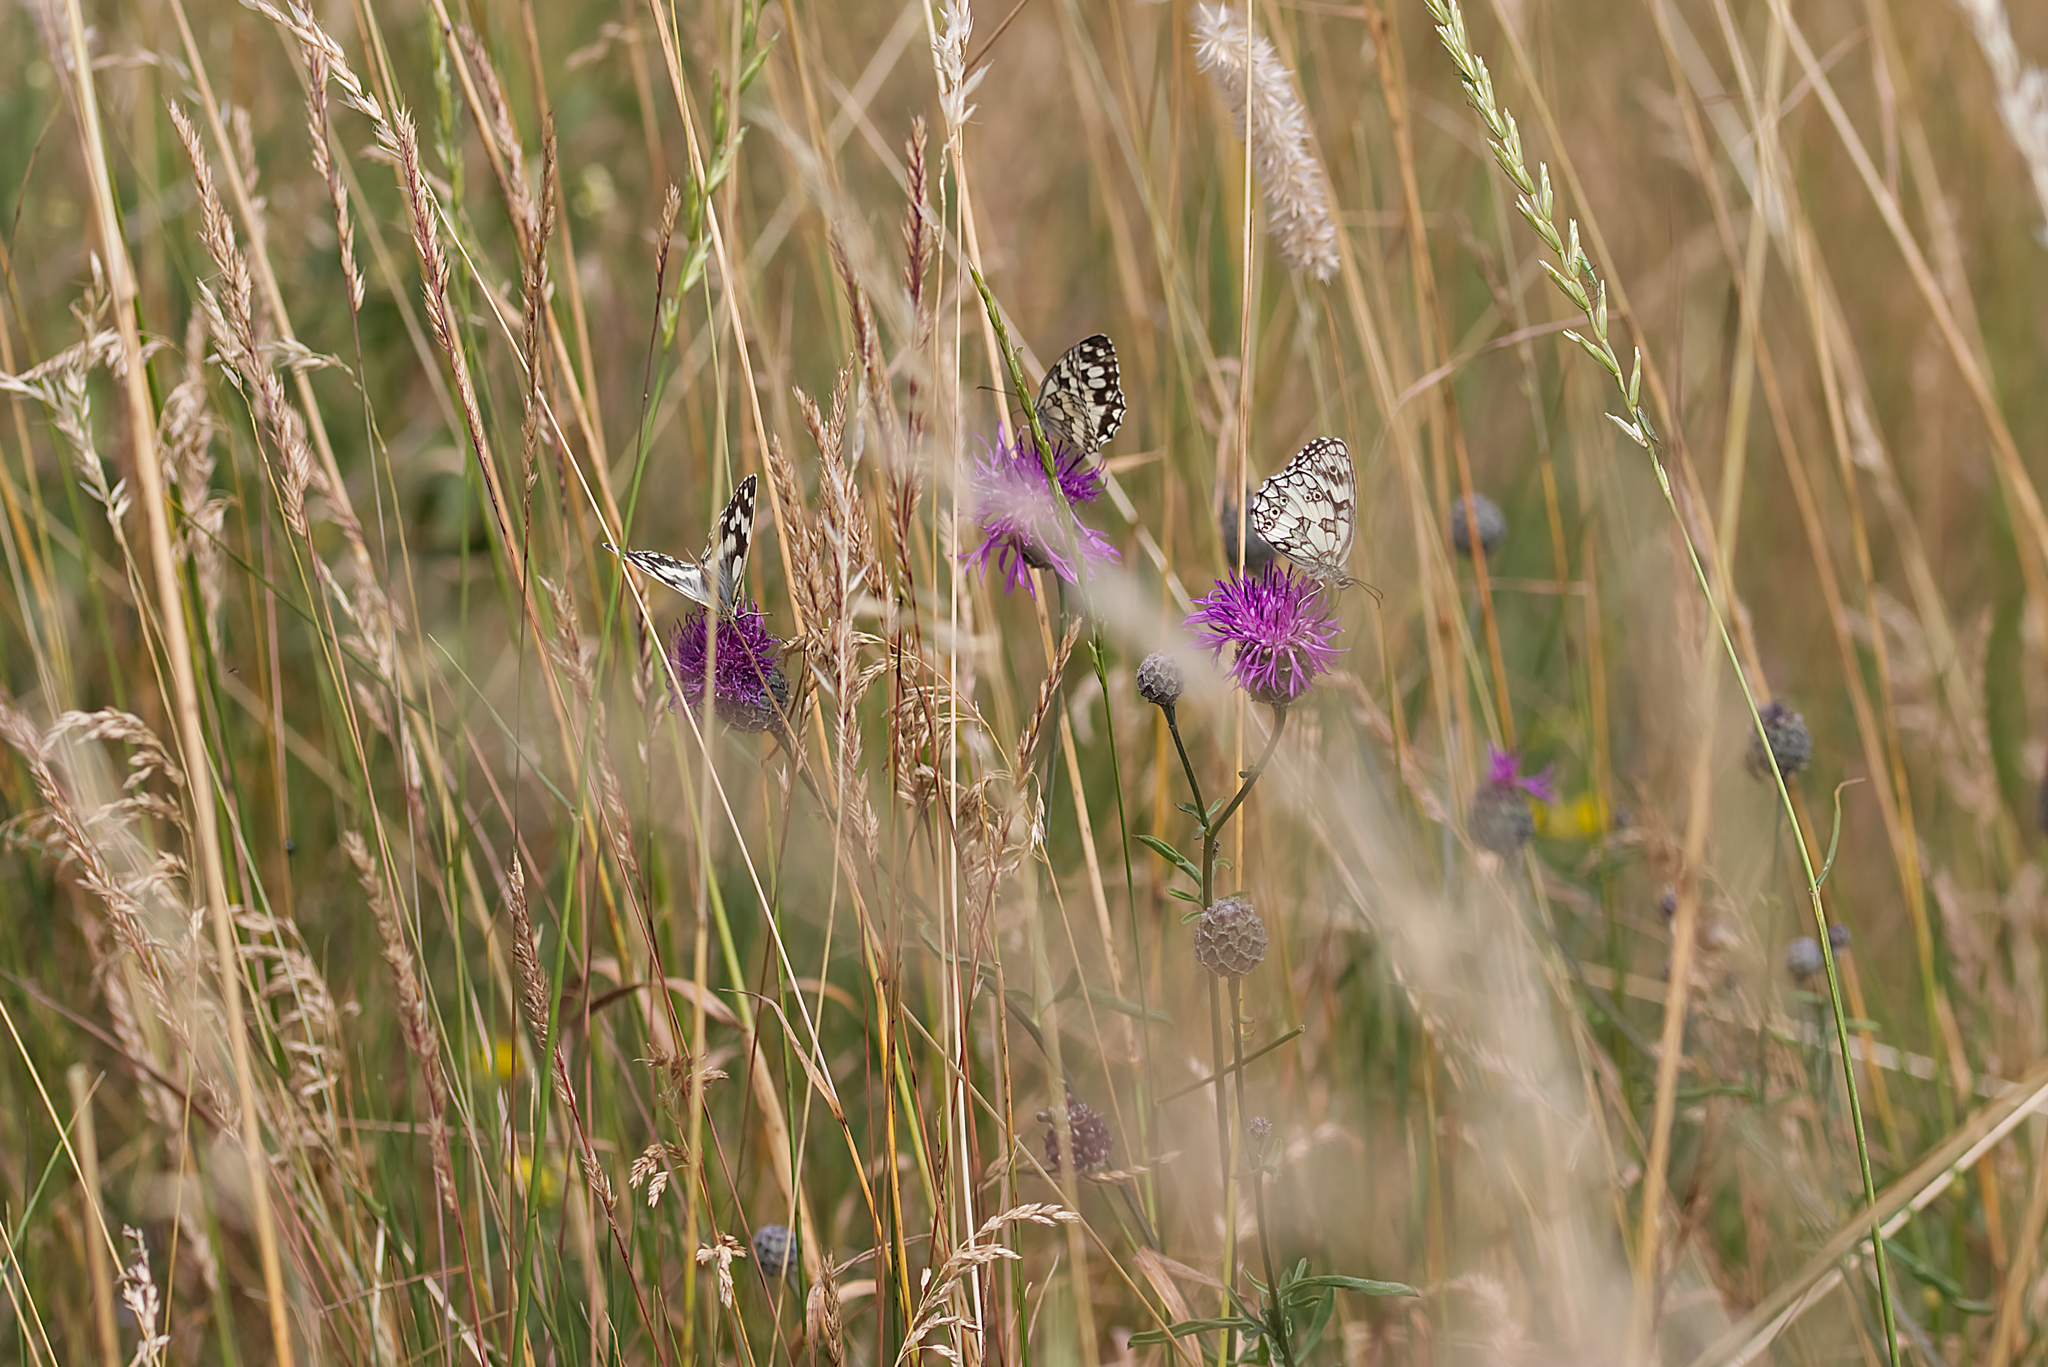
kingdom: Animalia
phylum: Arthropoda
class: Insecta
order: Lepidoptera
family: Nymphalidae
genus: Melanargia
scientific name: Melanargia galathea
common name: Marbled white
